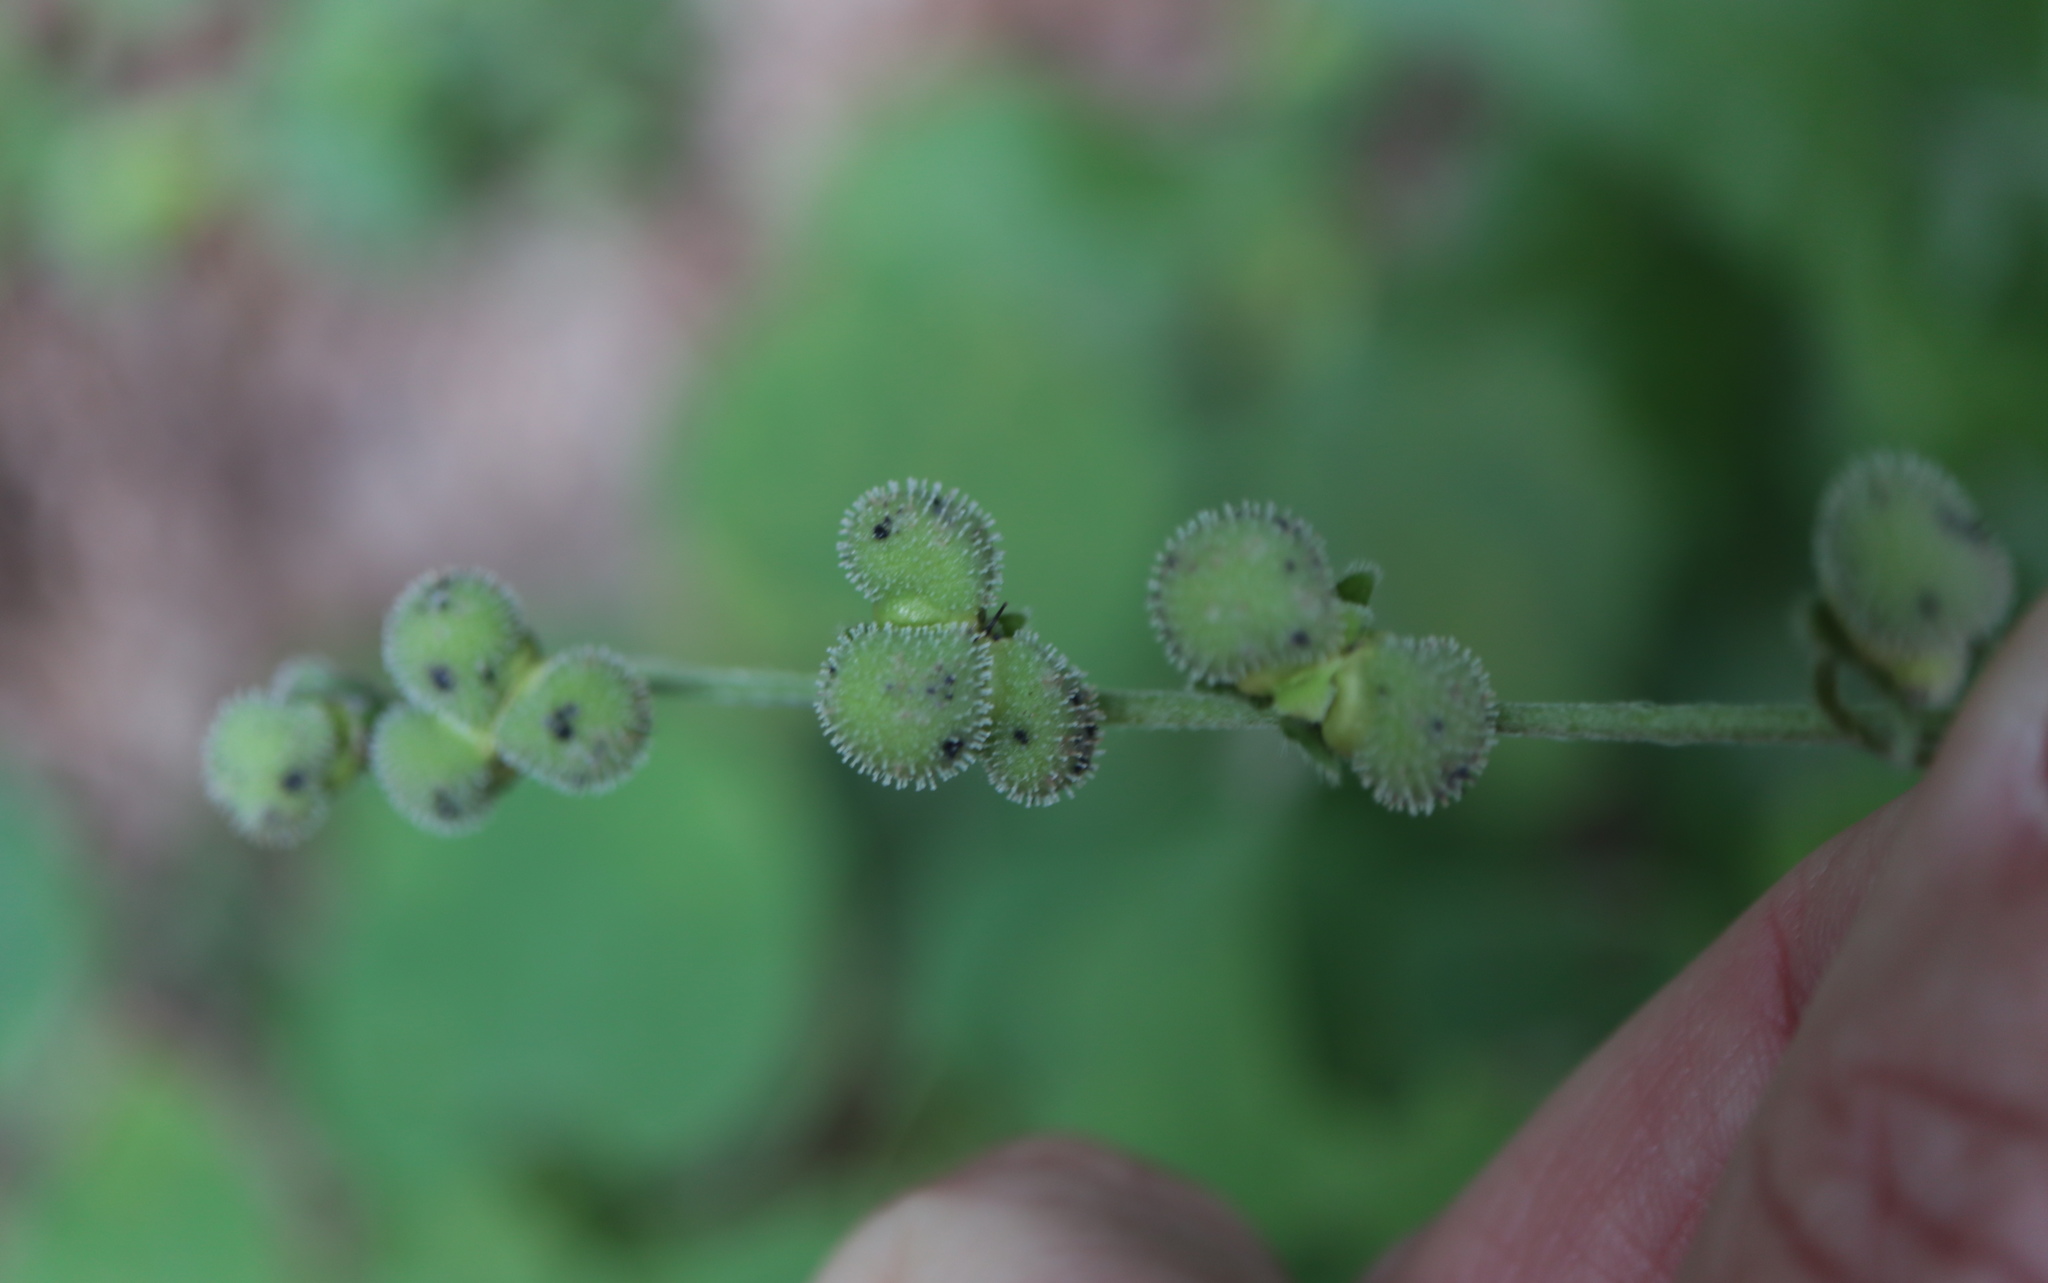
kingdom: Plantae
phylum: Tracheophyta
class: Magnoliopsida
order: Boraginales
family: Boraginaceae
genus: Andersonglossum
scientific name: Andersonglossum virginianum
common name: Wild comfrey
